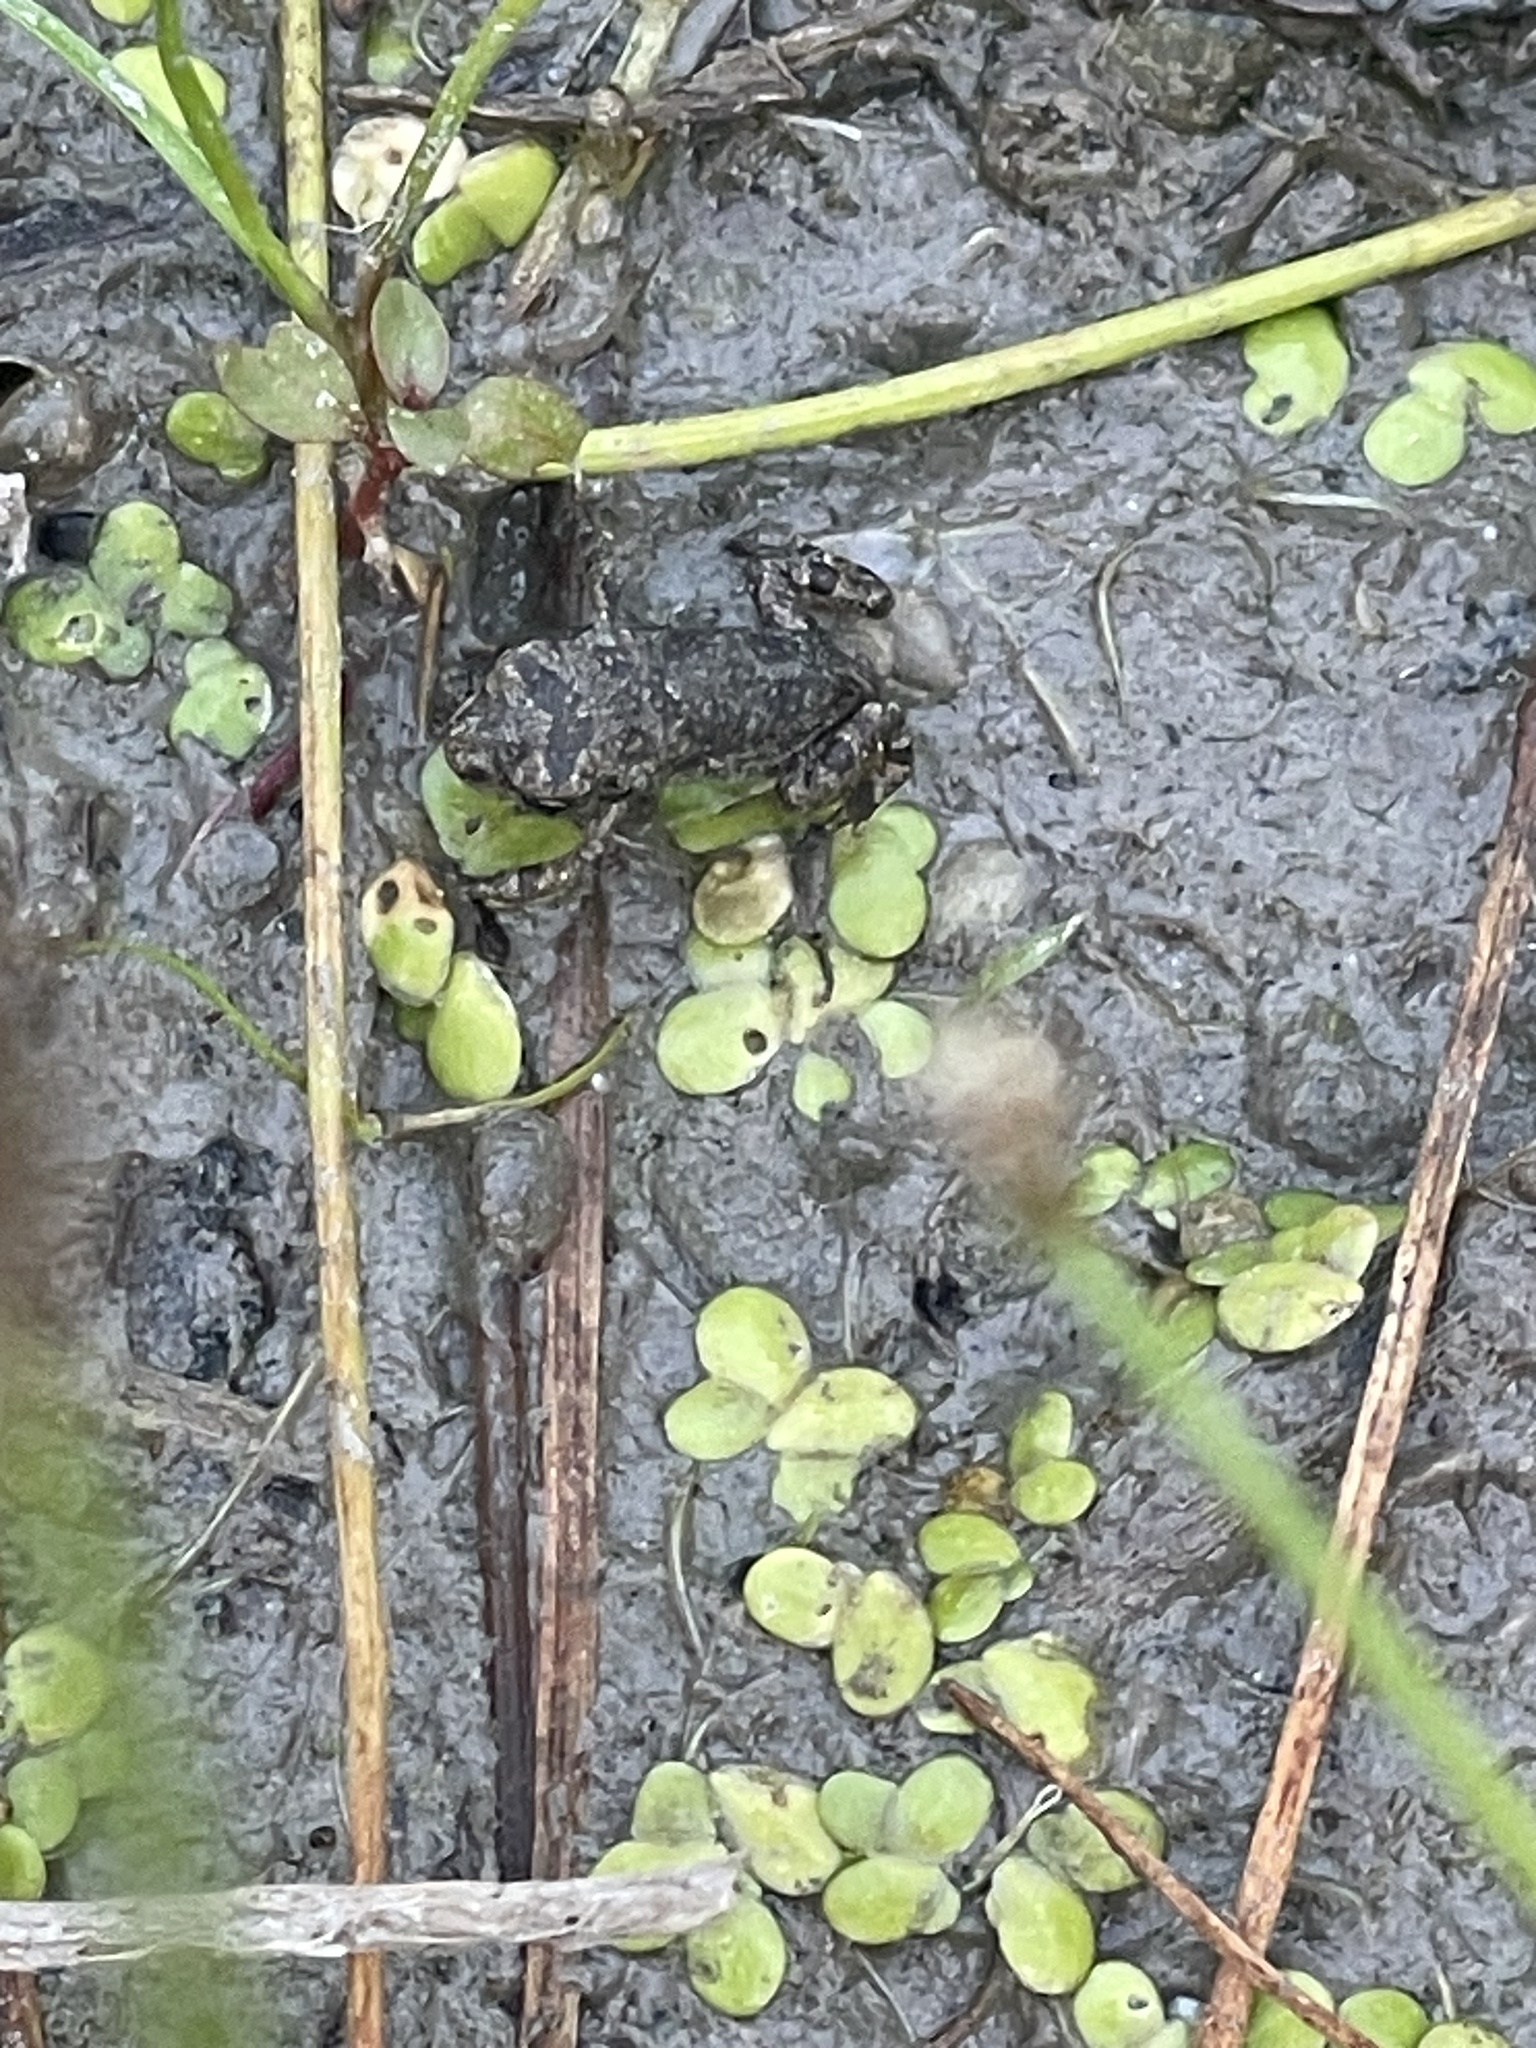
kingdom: Animalia
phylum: Chordata
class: Amphibia
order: Anura
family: Bufonidae
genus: Anaxyrus
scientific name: Anaxyrus fowleri
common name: Fowler's toad
